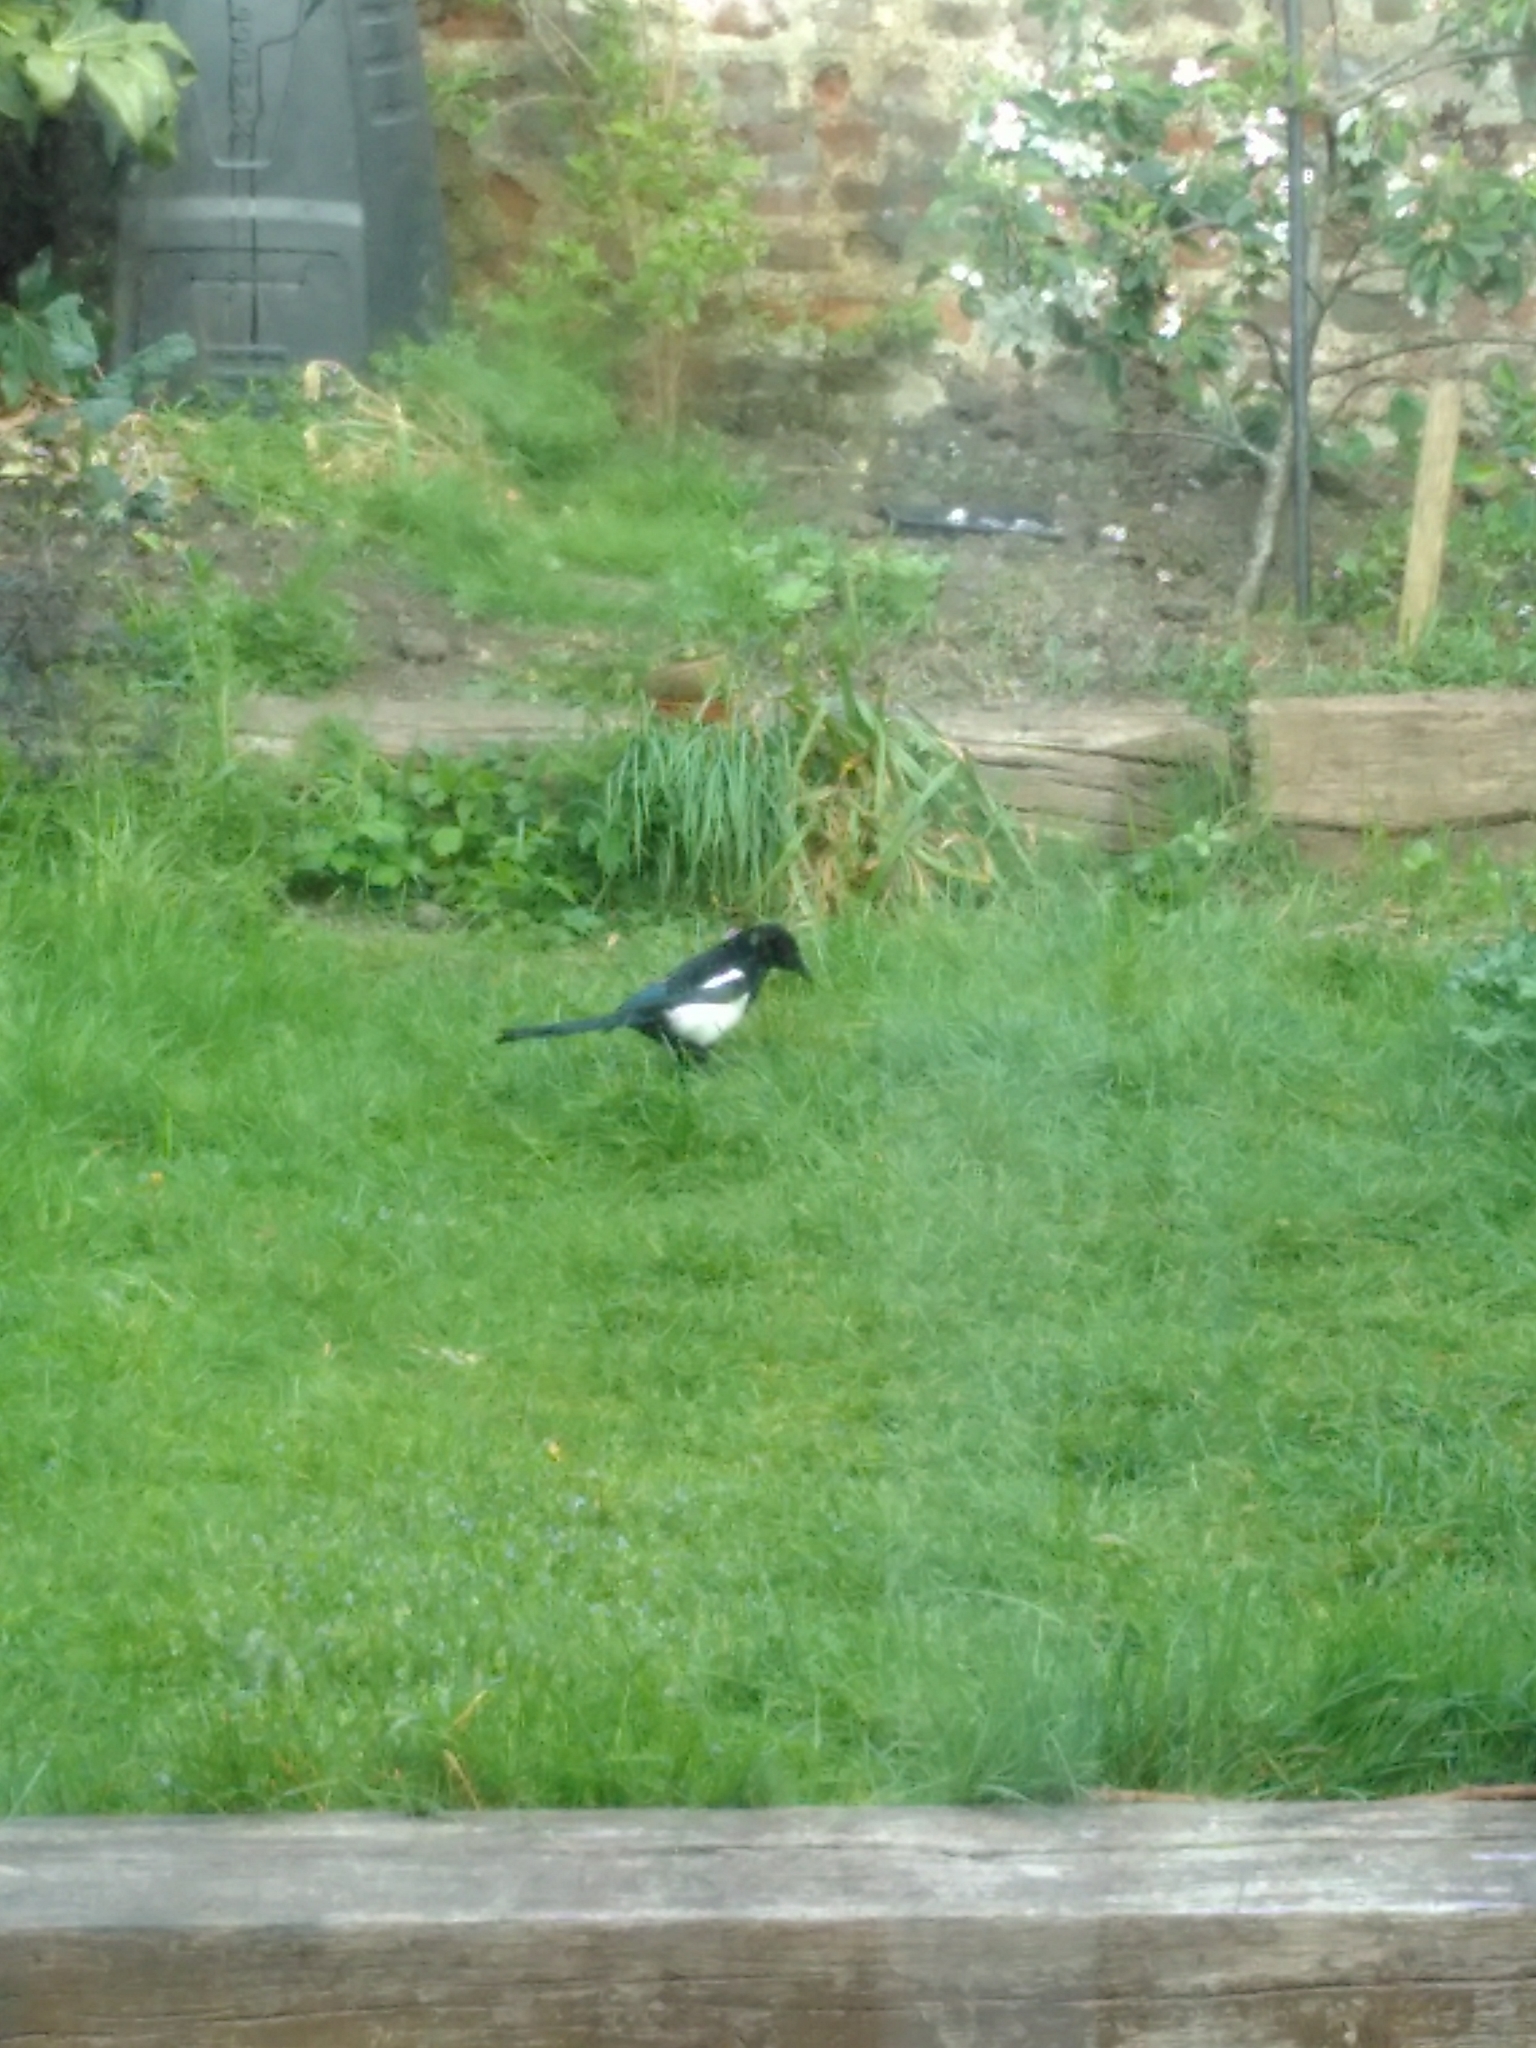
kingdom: Animalia
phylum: Chordata
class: Aves
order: Passeriformes
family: Corvidae
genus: Pica
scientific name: Pica pica
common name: Eurasian magpie
